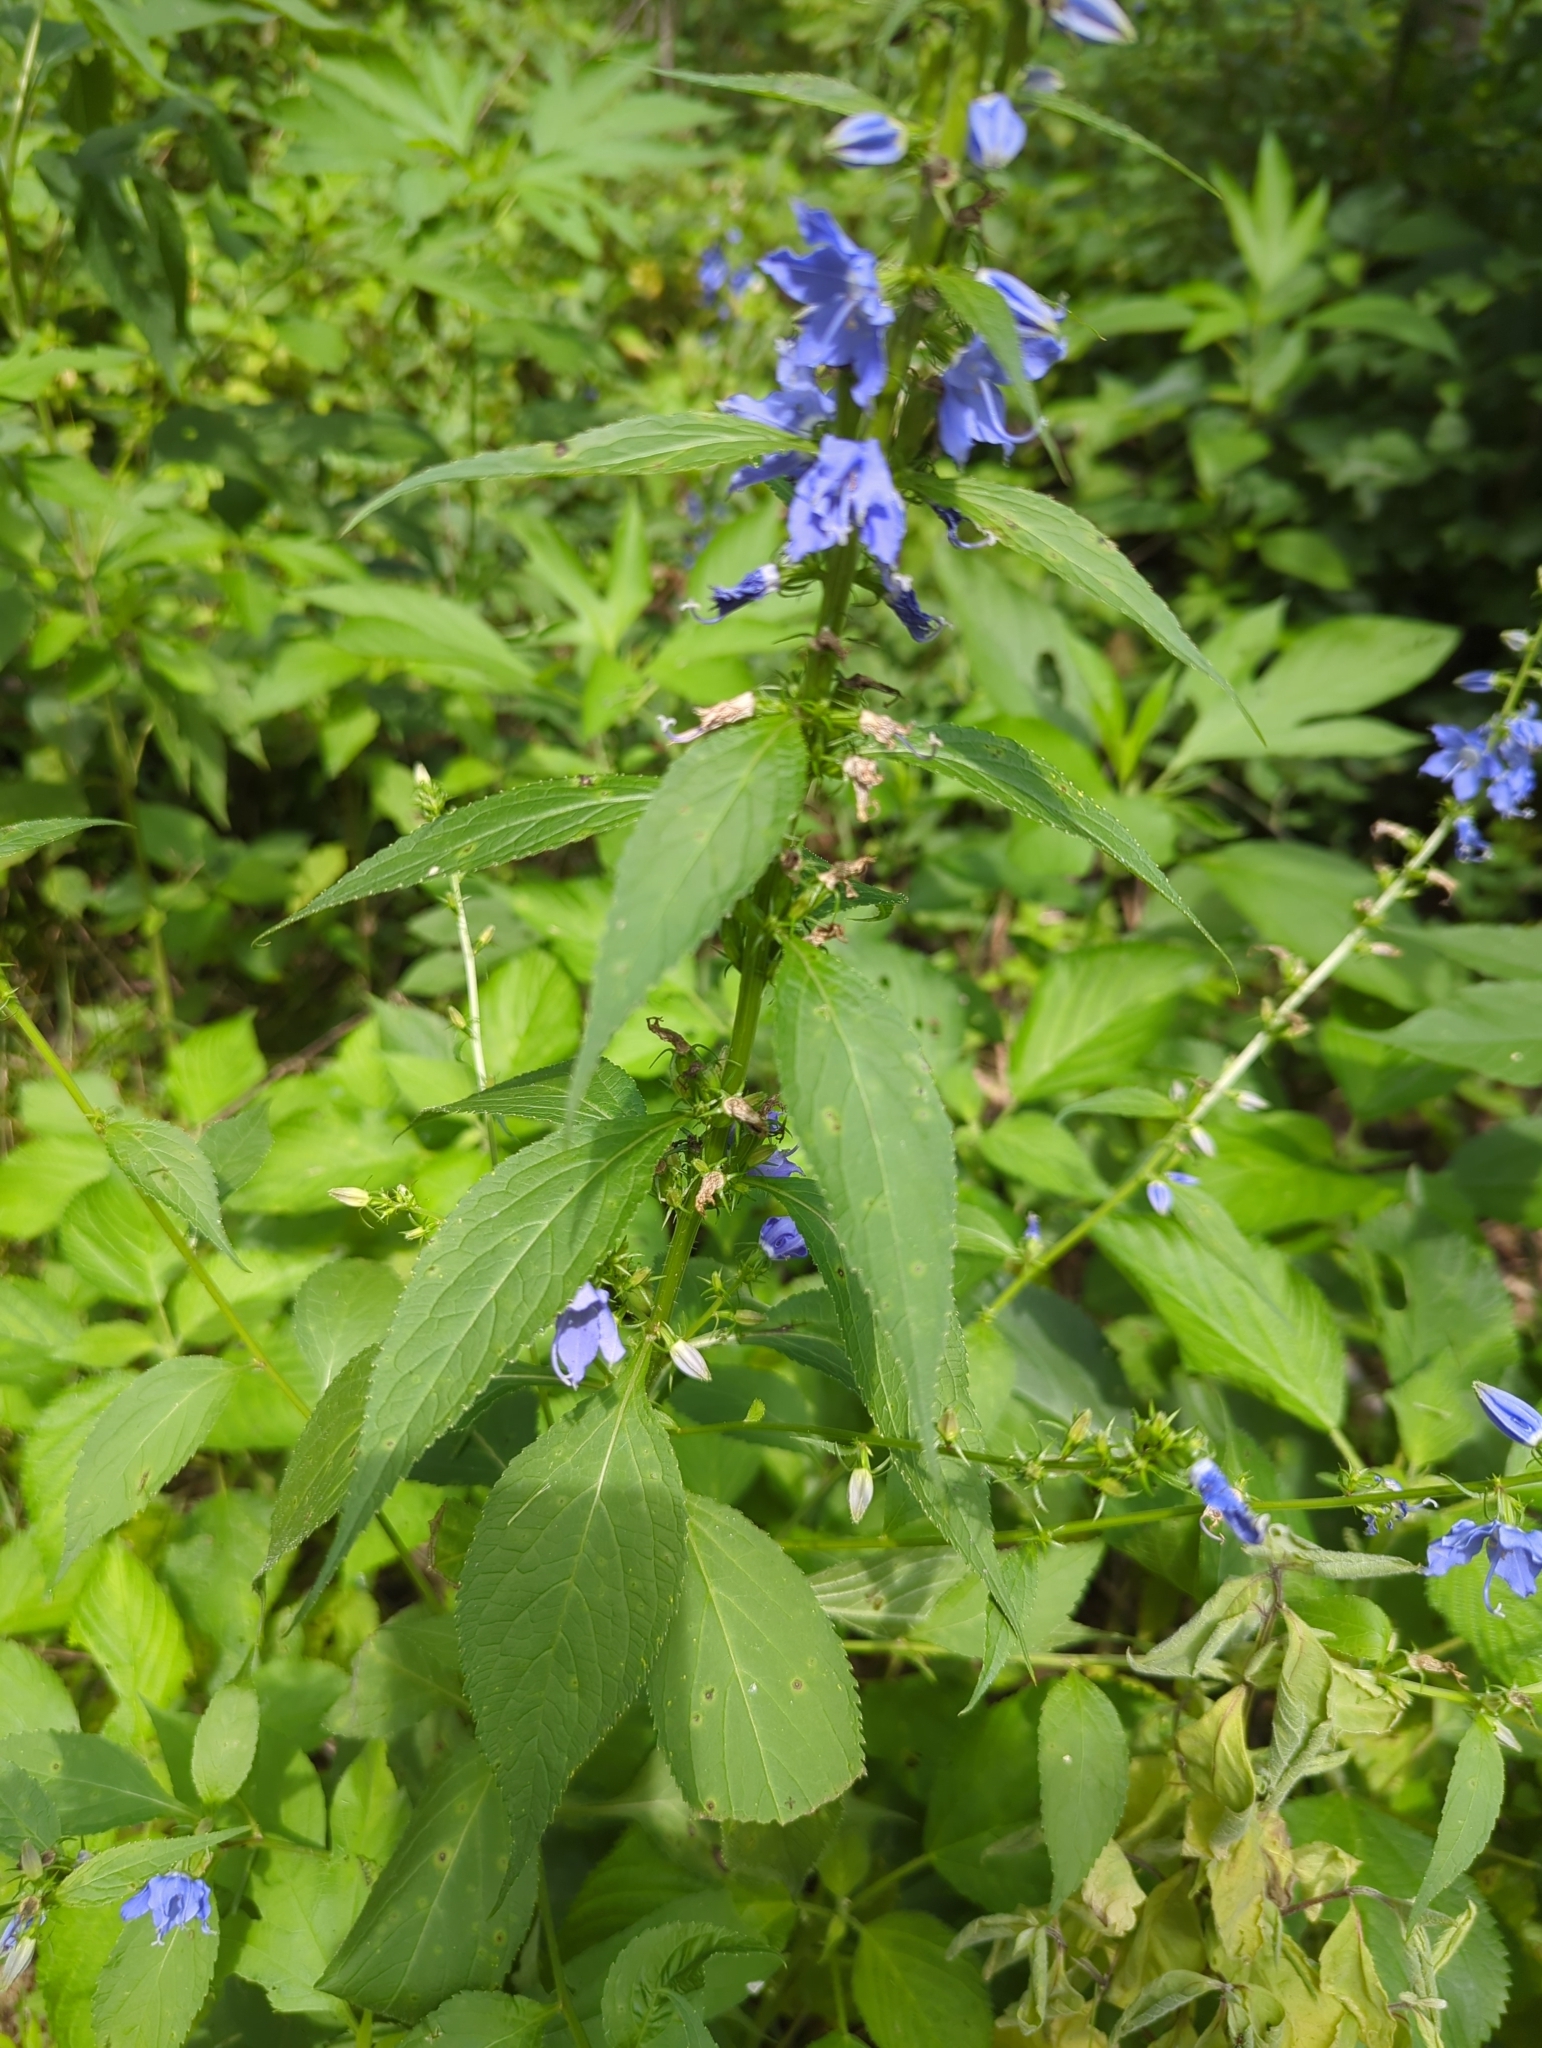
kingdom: Plantae
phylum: Tracheophyta
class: Magnoliopsida
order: Asterales
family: Campanulaceae
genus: Campanulastrum
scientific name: Campanulastrum americanum
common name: American bellflower
